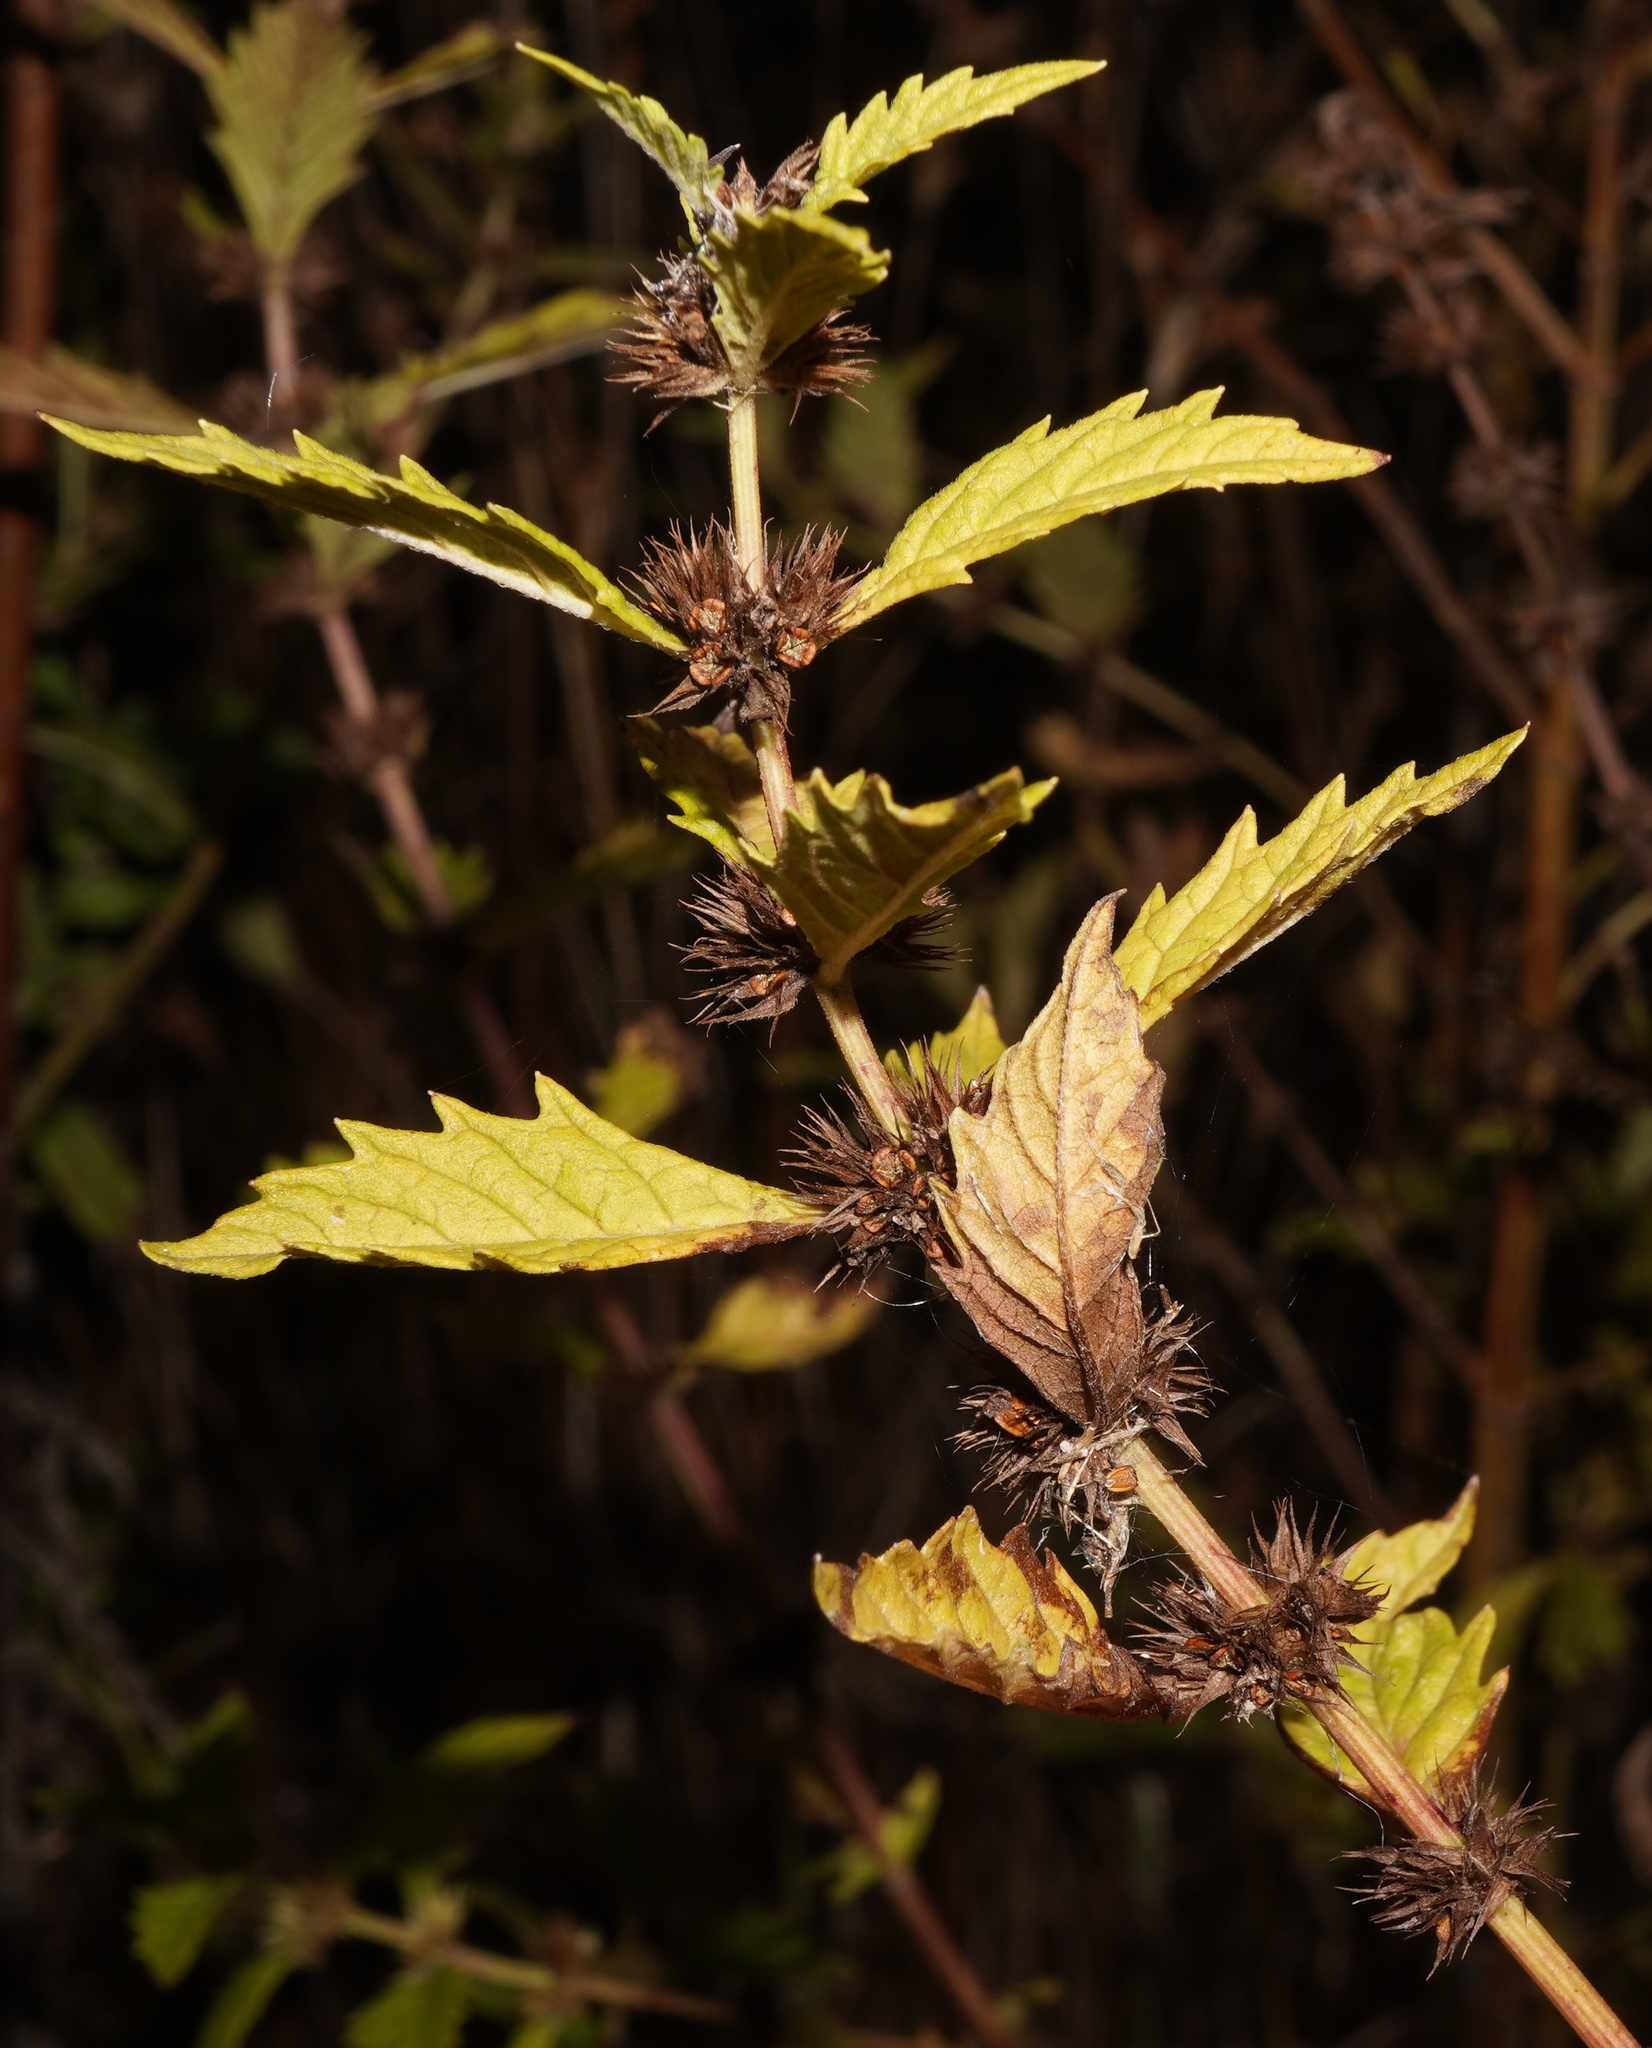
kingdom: Plantae
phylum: Tracheophyta
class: Magnoliopsida
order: Lamiales
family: Lamiaceae
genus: Lycopus
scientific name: Lycopus europaeus
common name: European bugleweed
